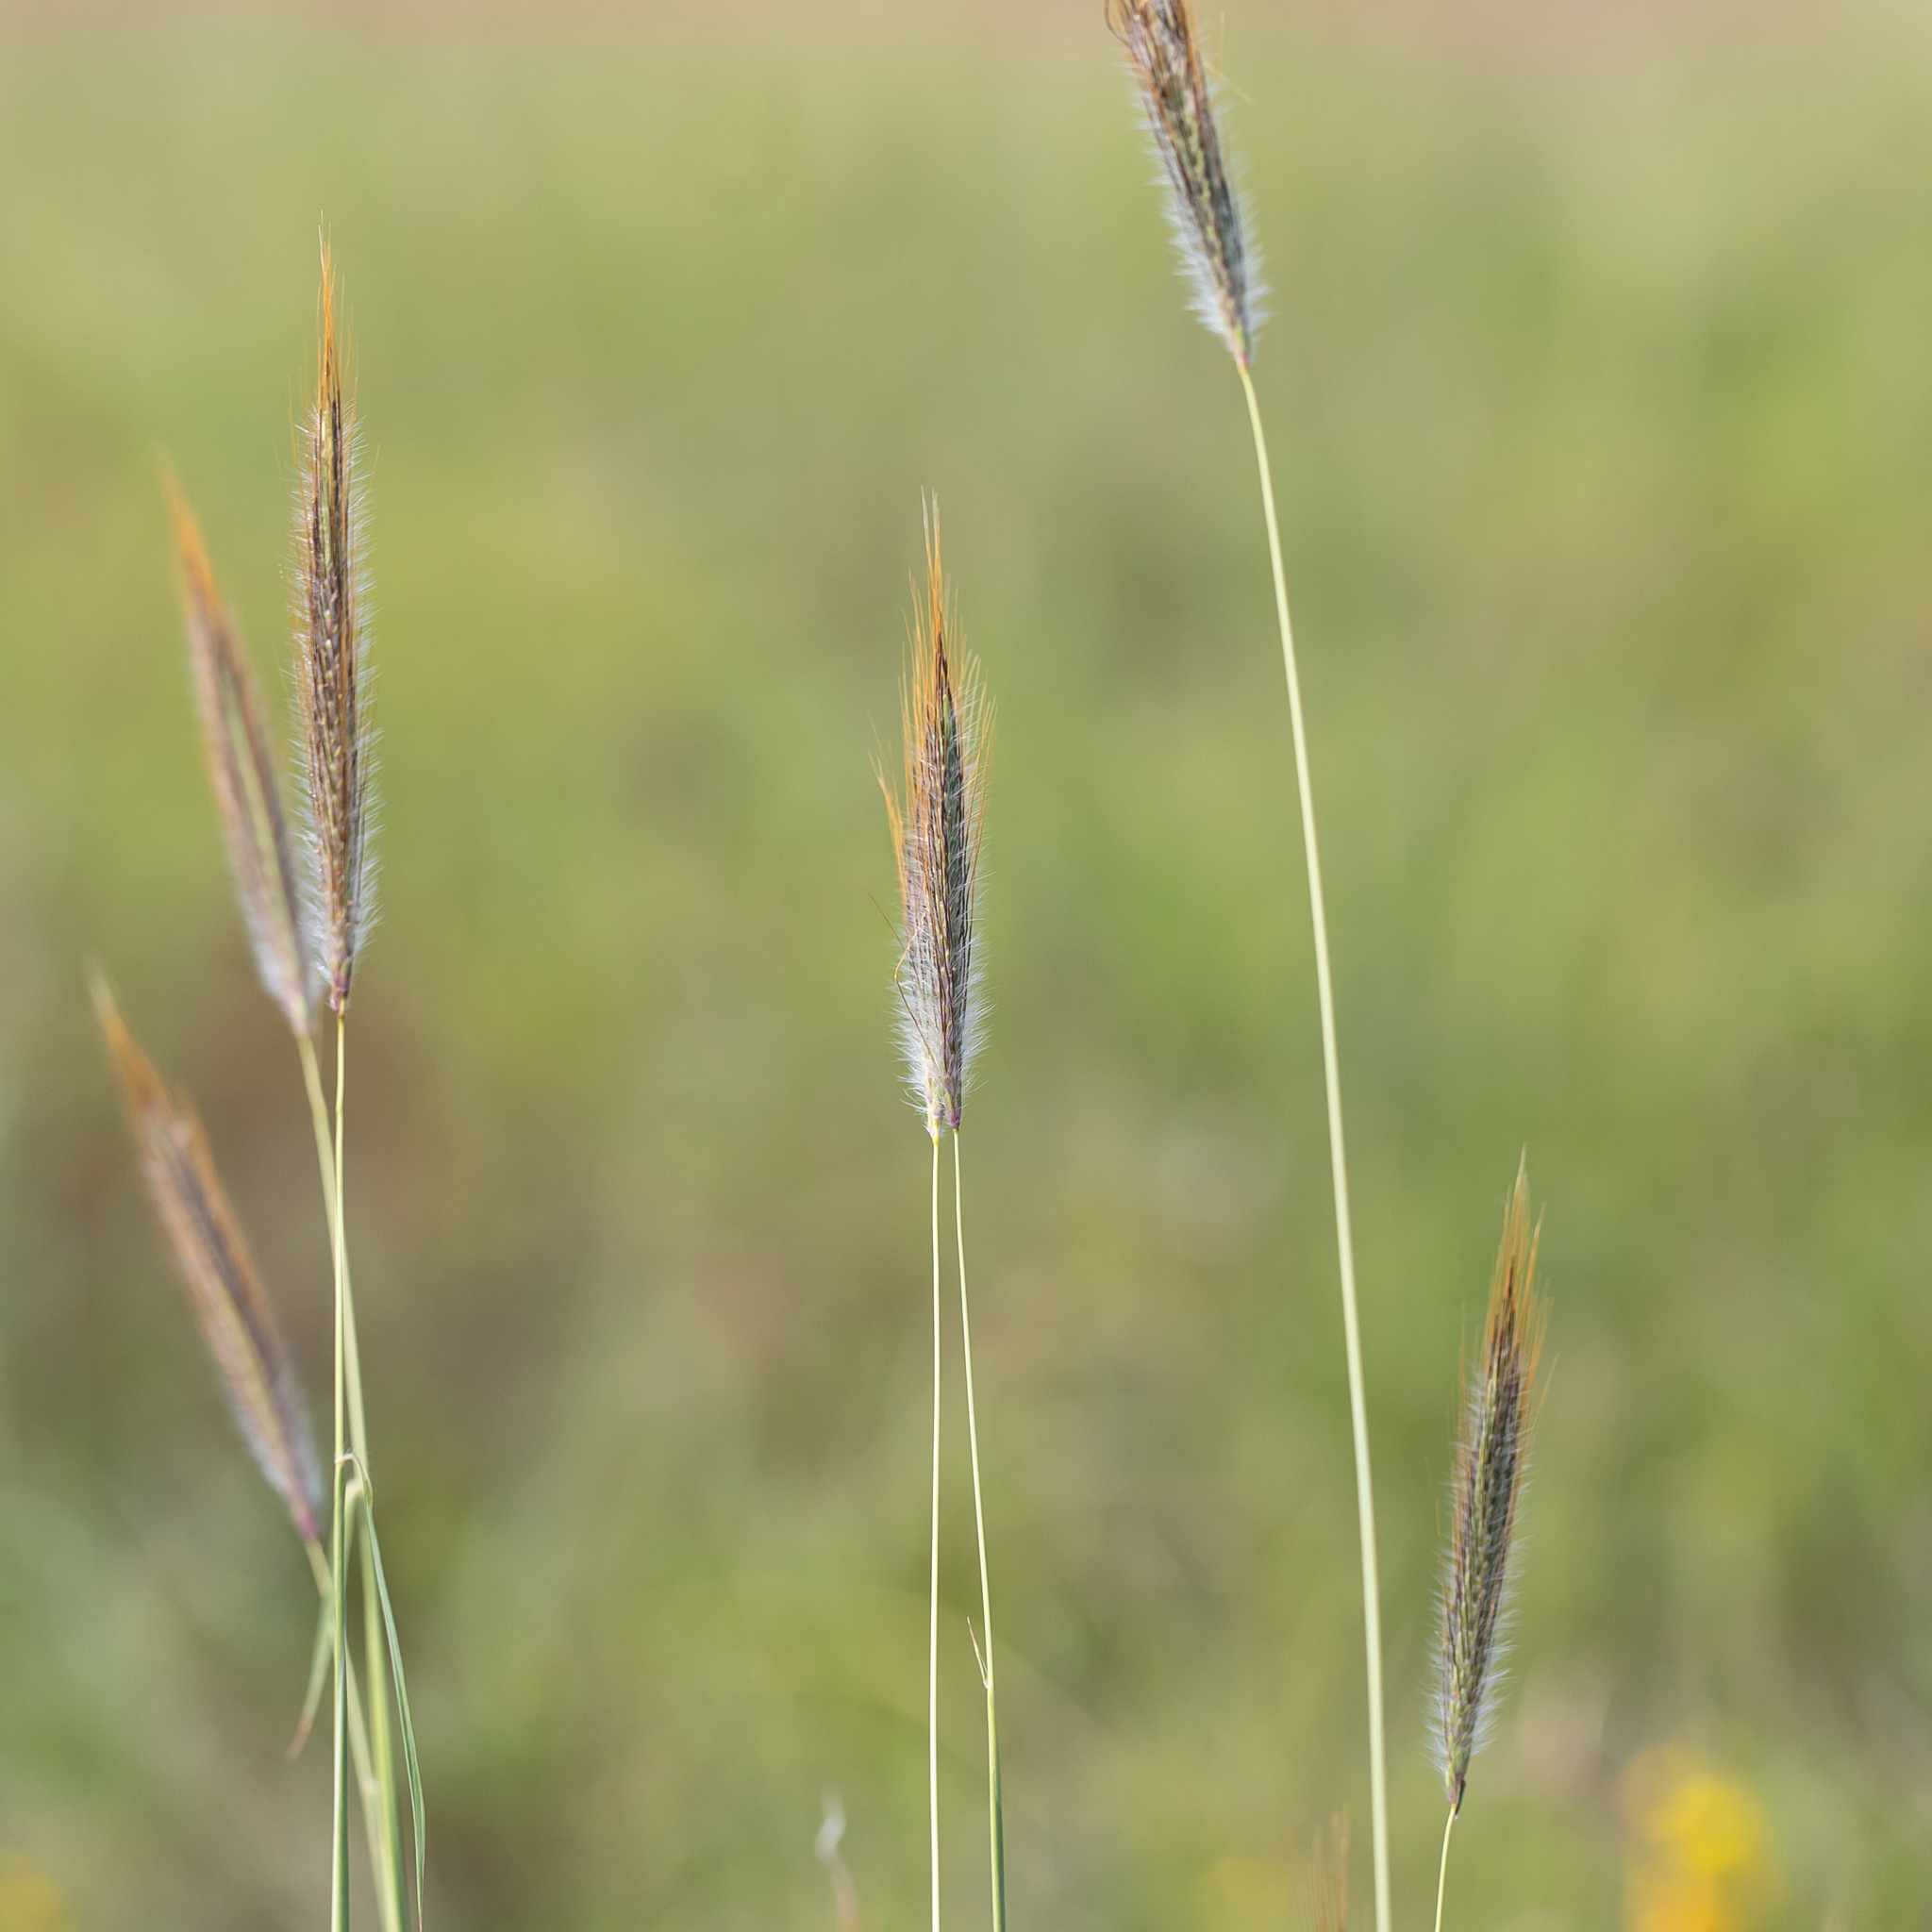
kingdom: Plantae
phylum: Tracheophyta
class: Liliopsida
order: Poales
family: Poaceae
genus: Dichanthium
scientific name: Dichanthium sericeum
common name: Silky bluestem
